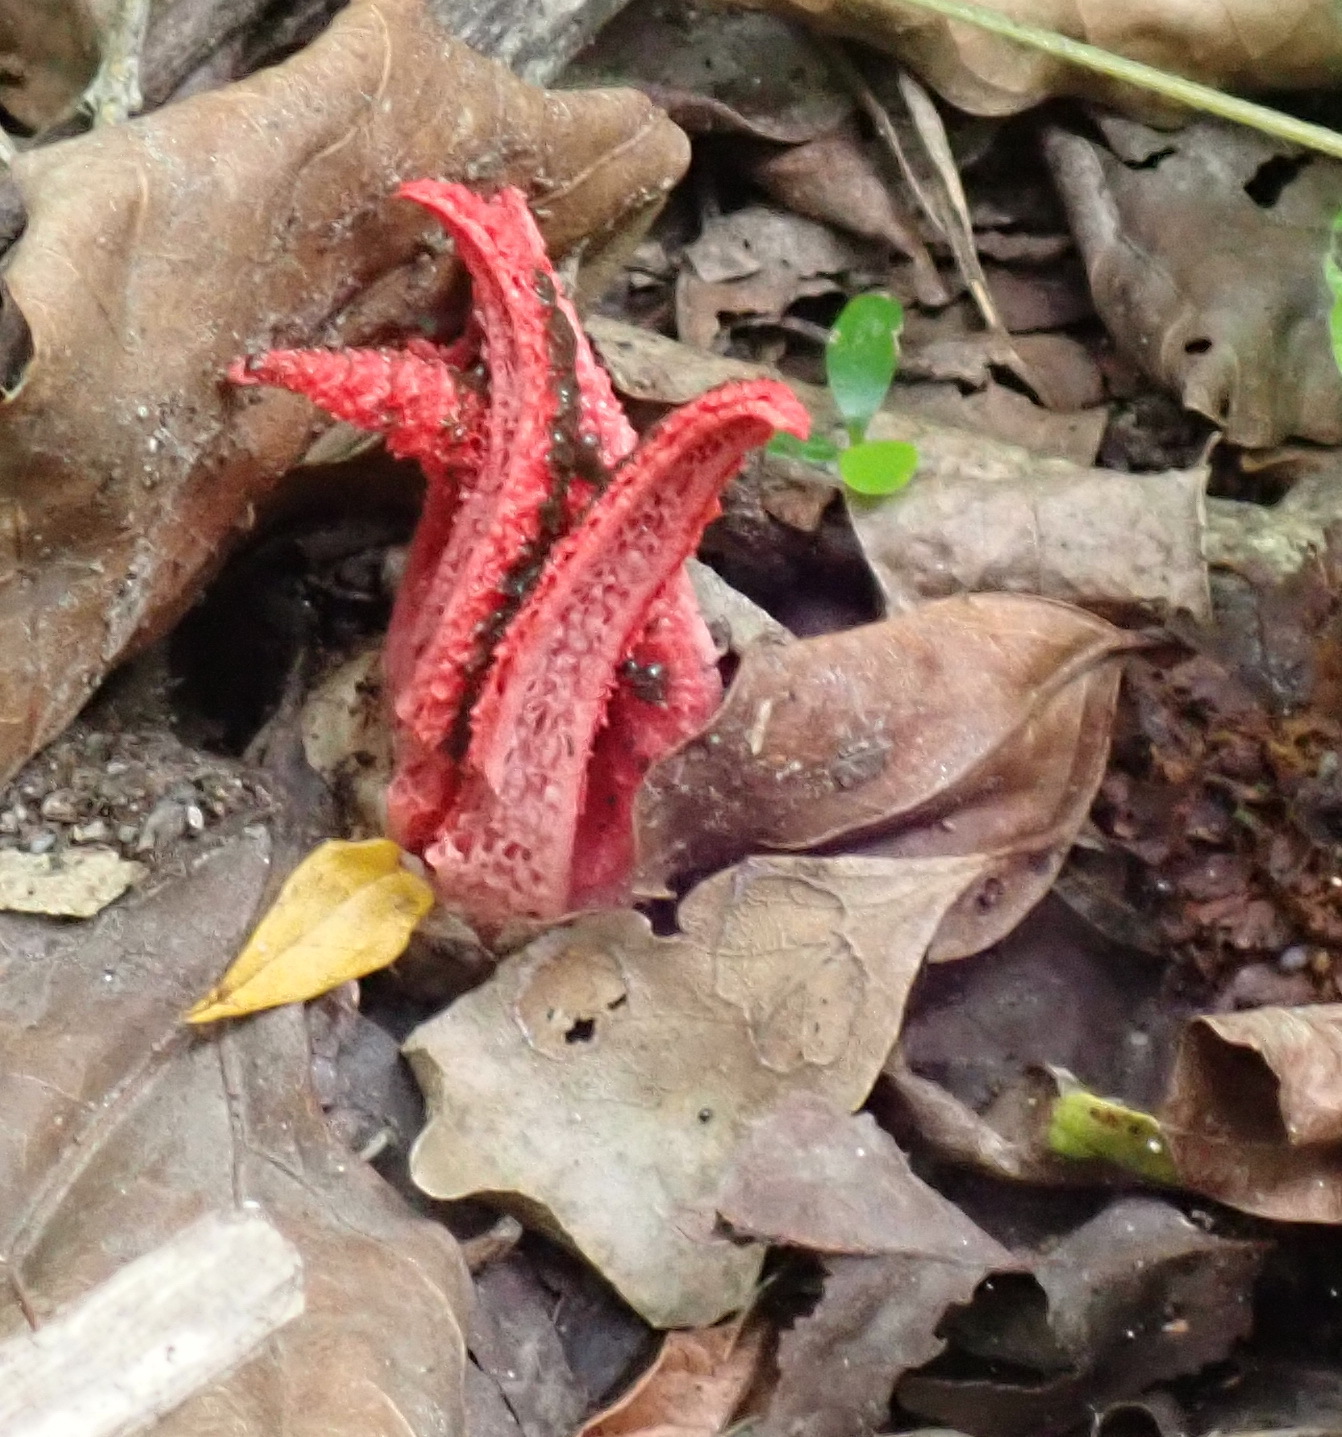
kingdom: Fungi
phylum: Basidiomycota
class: Agaricomycetes
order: Phallales
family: Phallaceae
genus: Clathrus
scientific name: Clathrus archeri
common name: Devil's fingers
